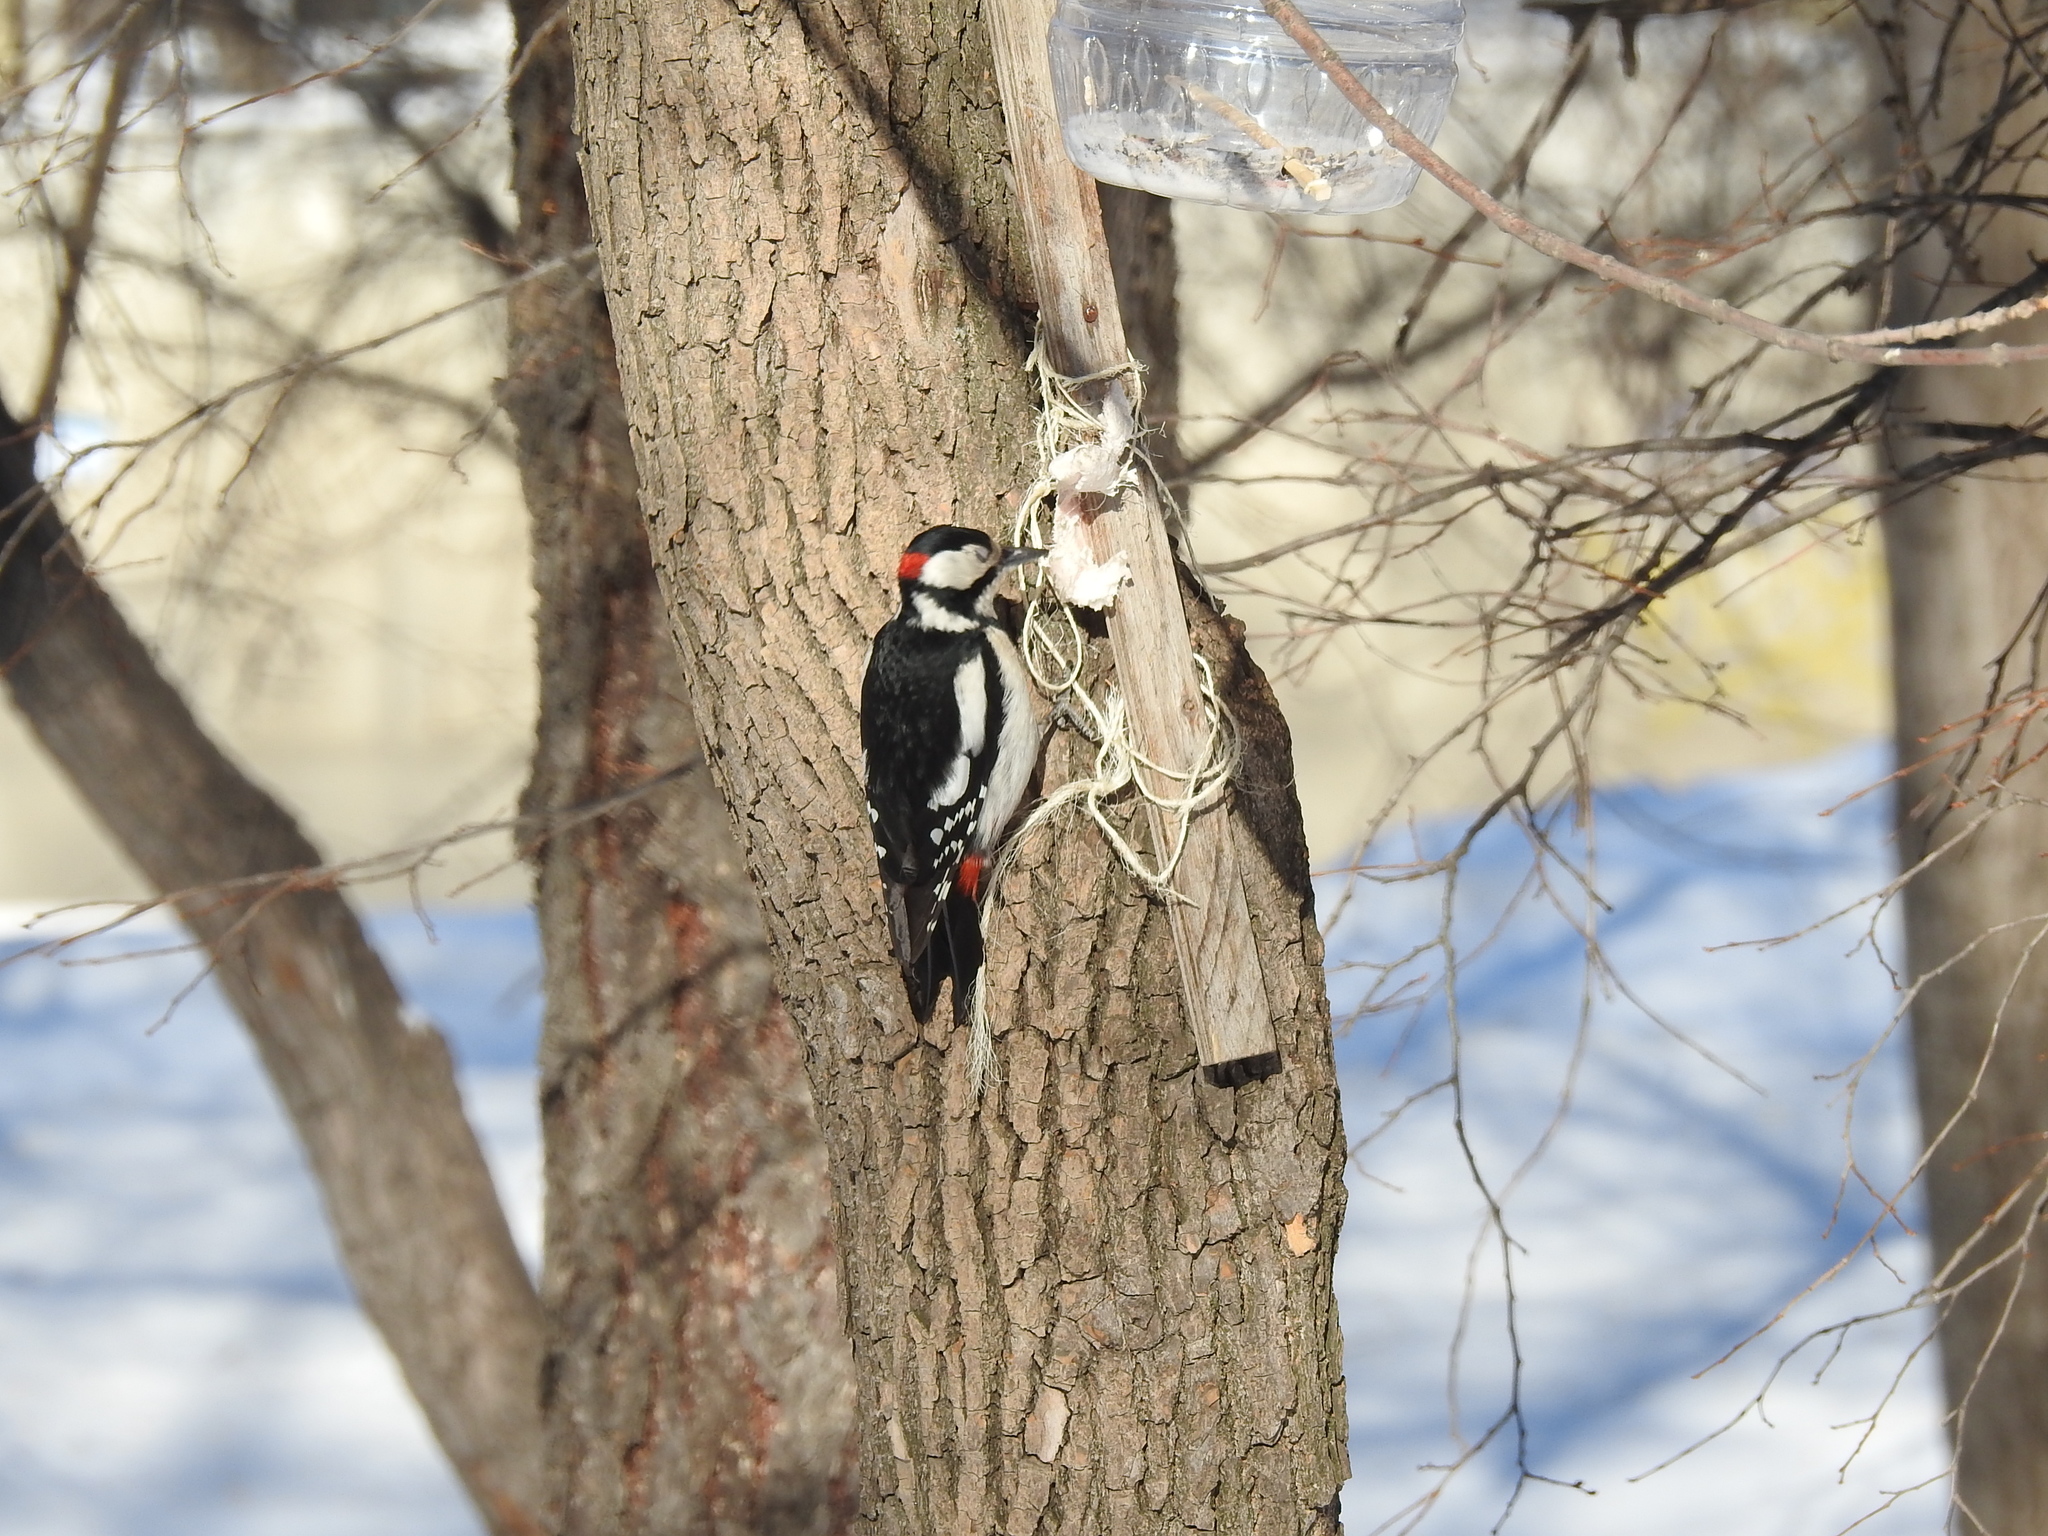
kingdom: Animalia
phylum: Chordata
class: Aves
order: Piciformes
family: Picidae
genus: Dendrocopos
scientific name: Dendrocopos major
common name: Great spotted woodpecker
